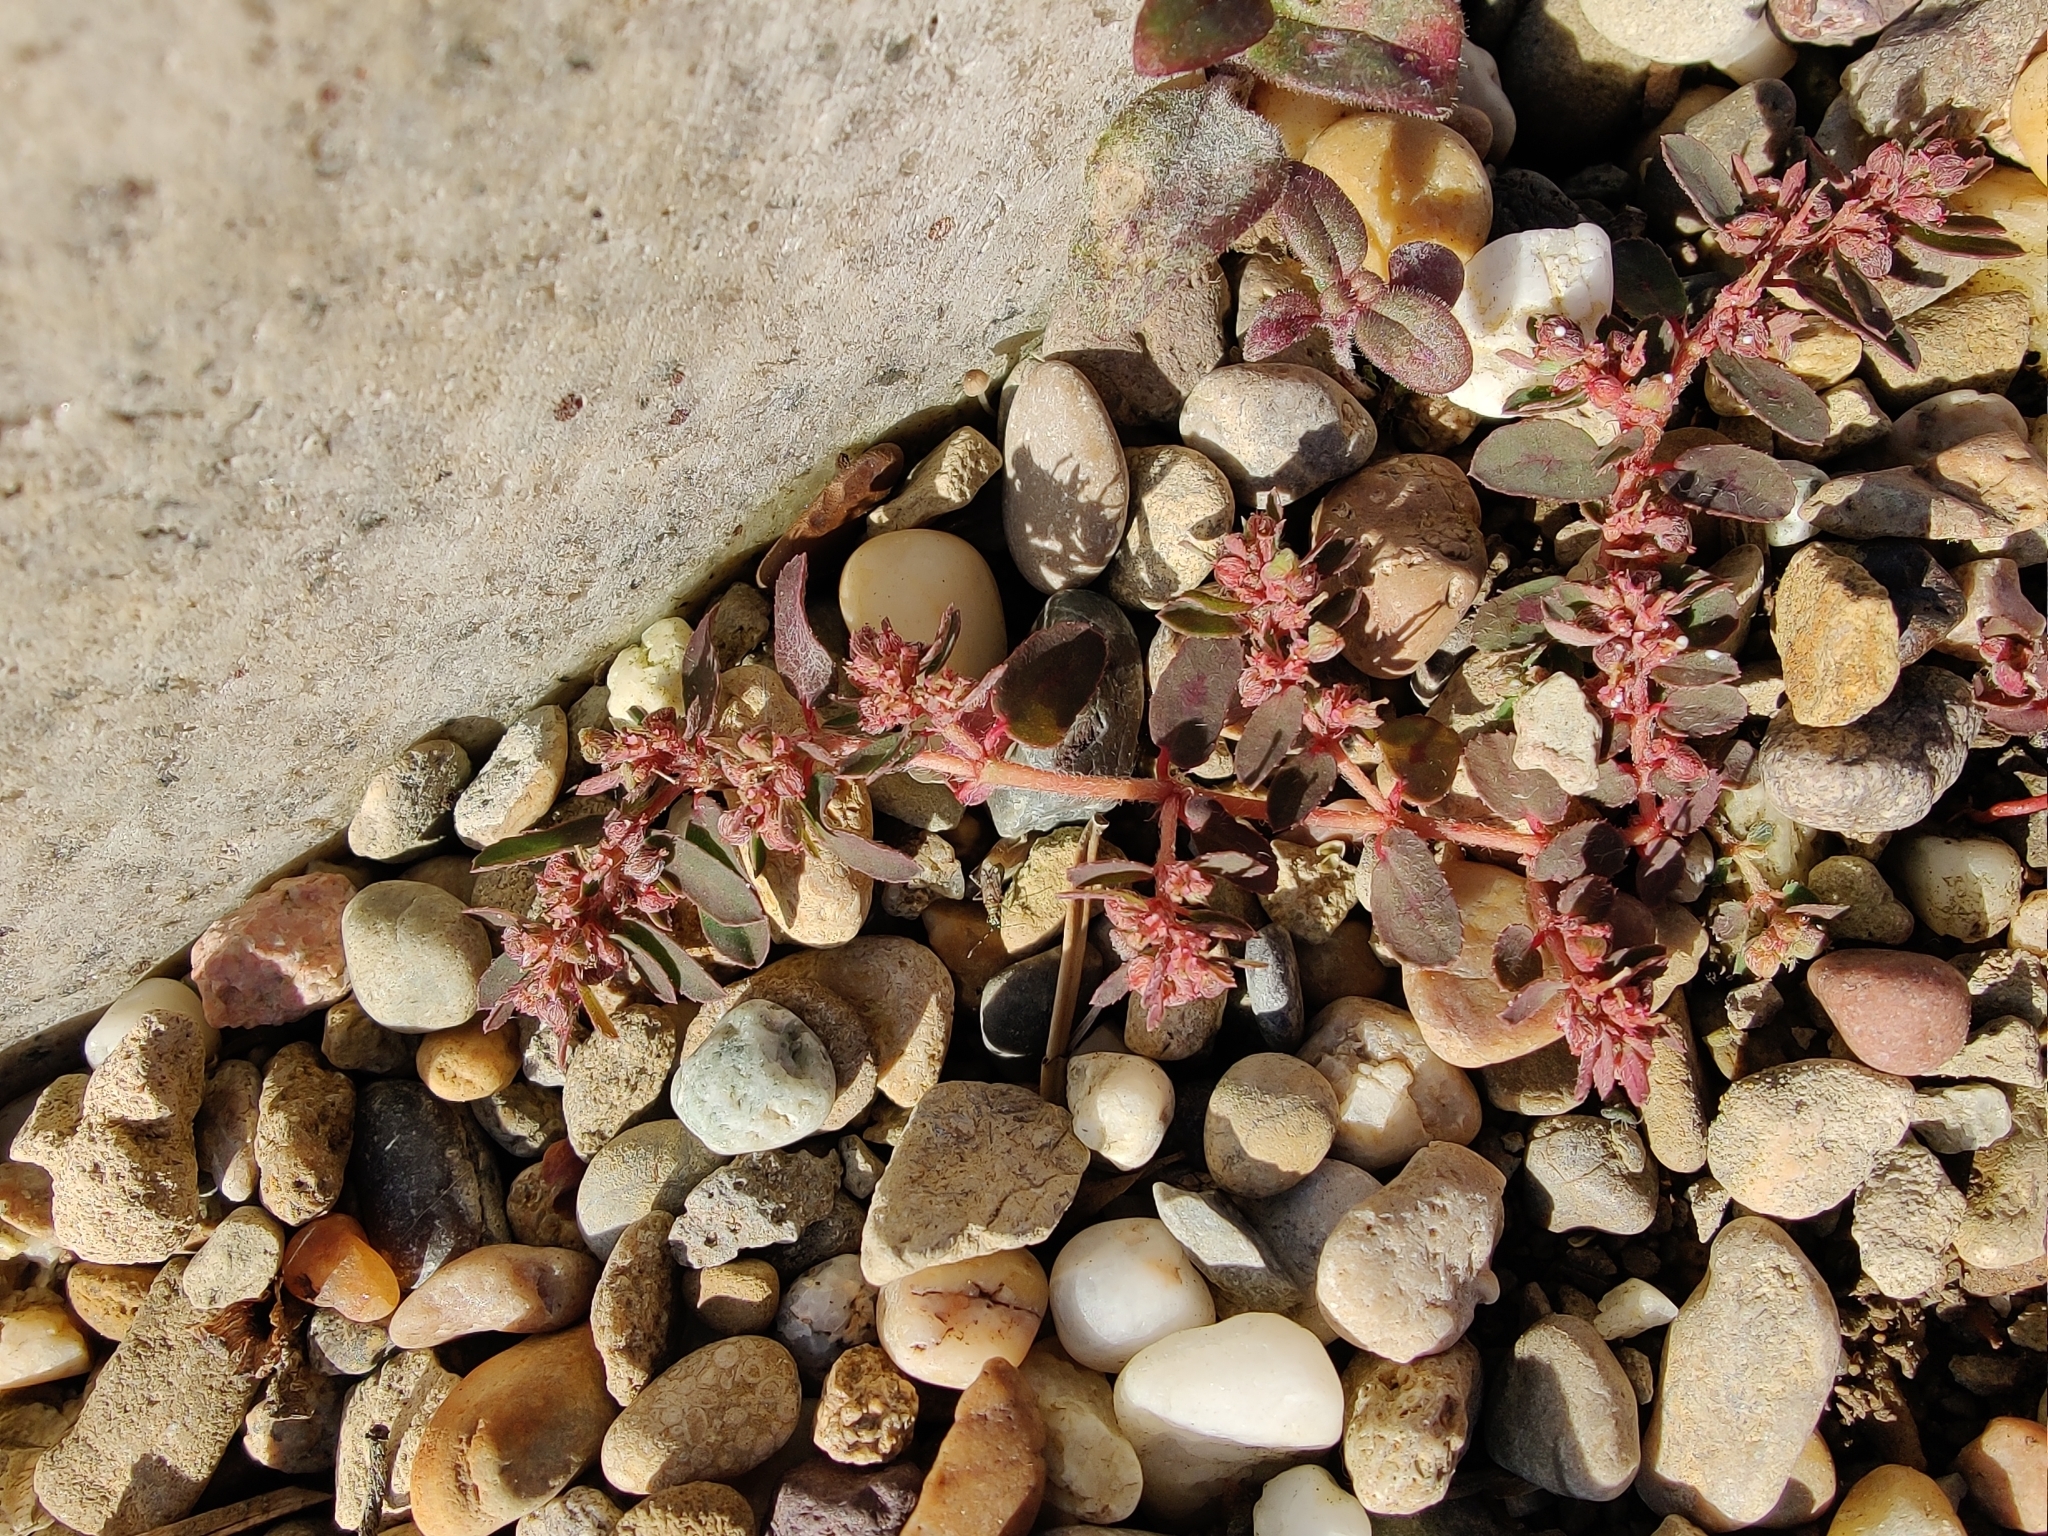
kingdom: Plantae
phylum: Tracheophyta
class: Magnoliopsida
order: Malpighiales
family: Euphorbiaceae
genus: Euphorbia
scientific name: Euphorbia maculata
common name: Spotted spurge
